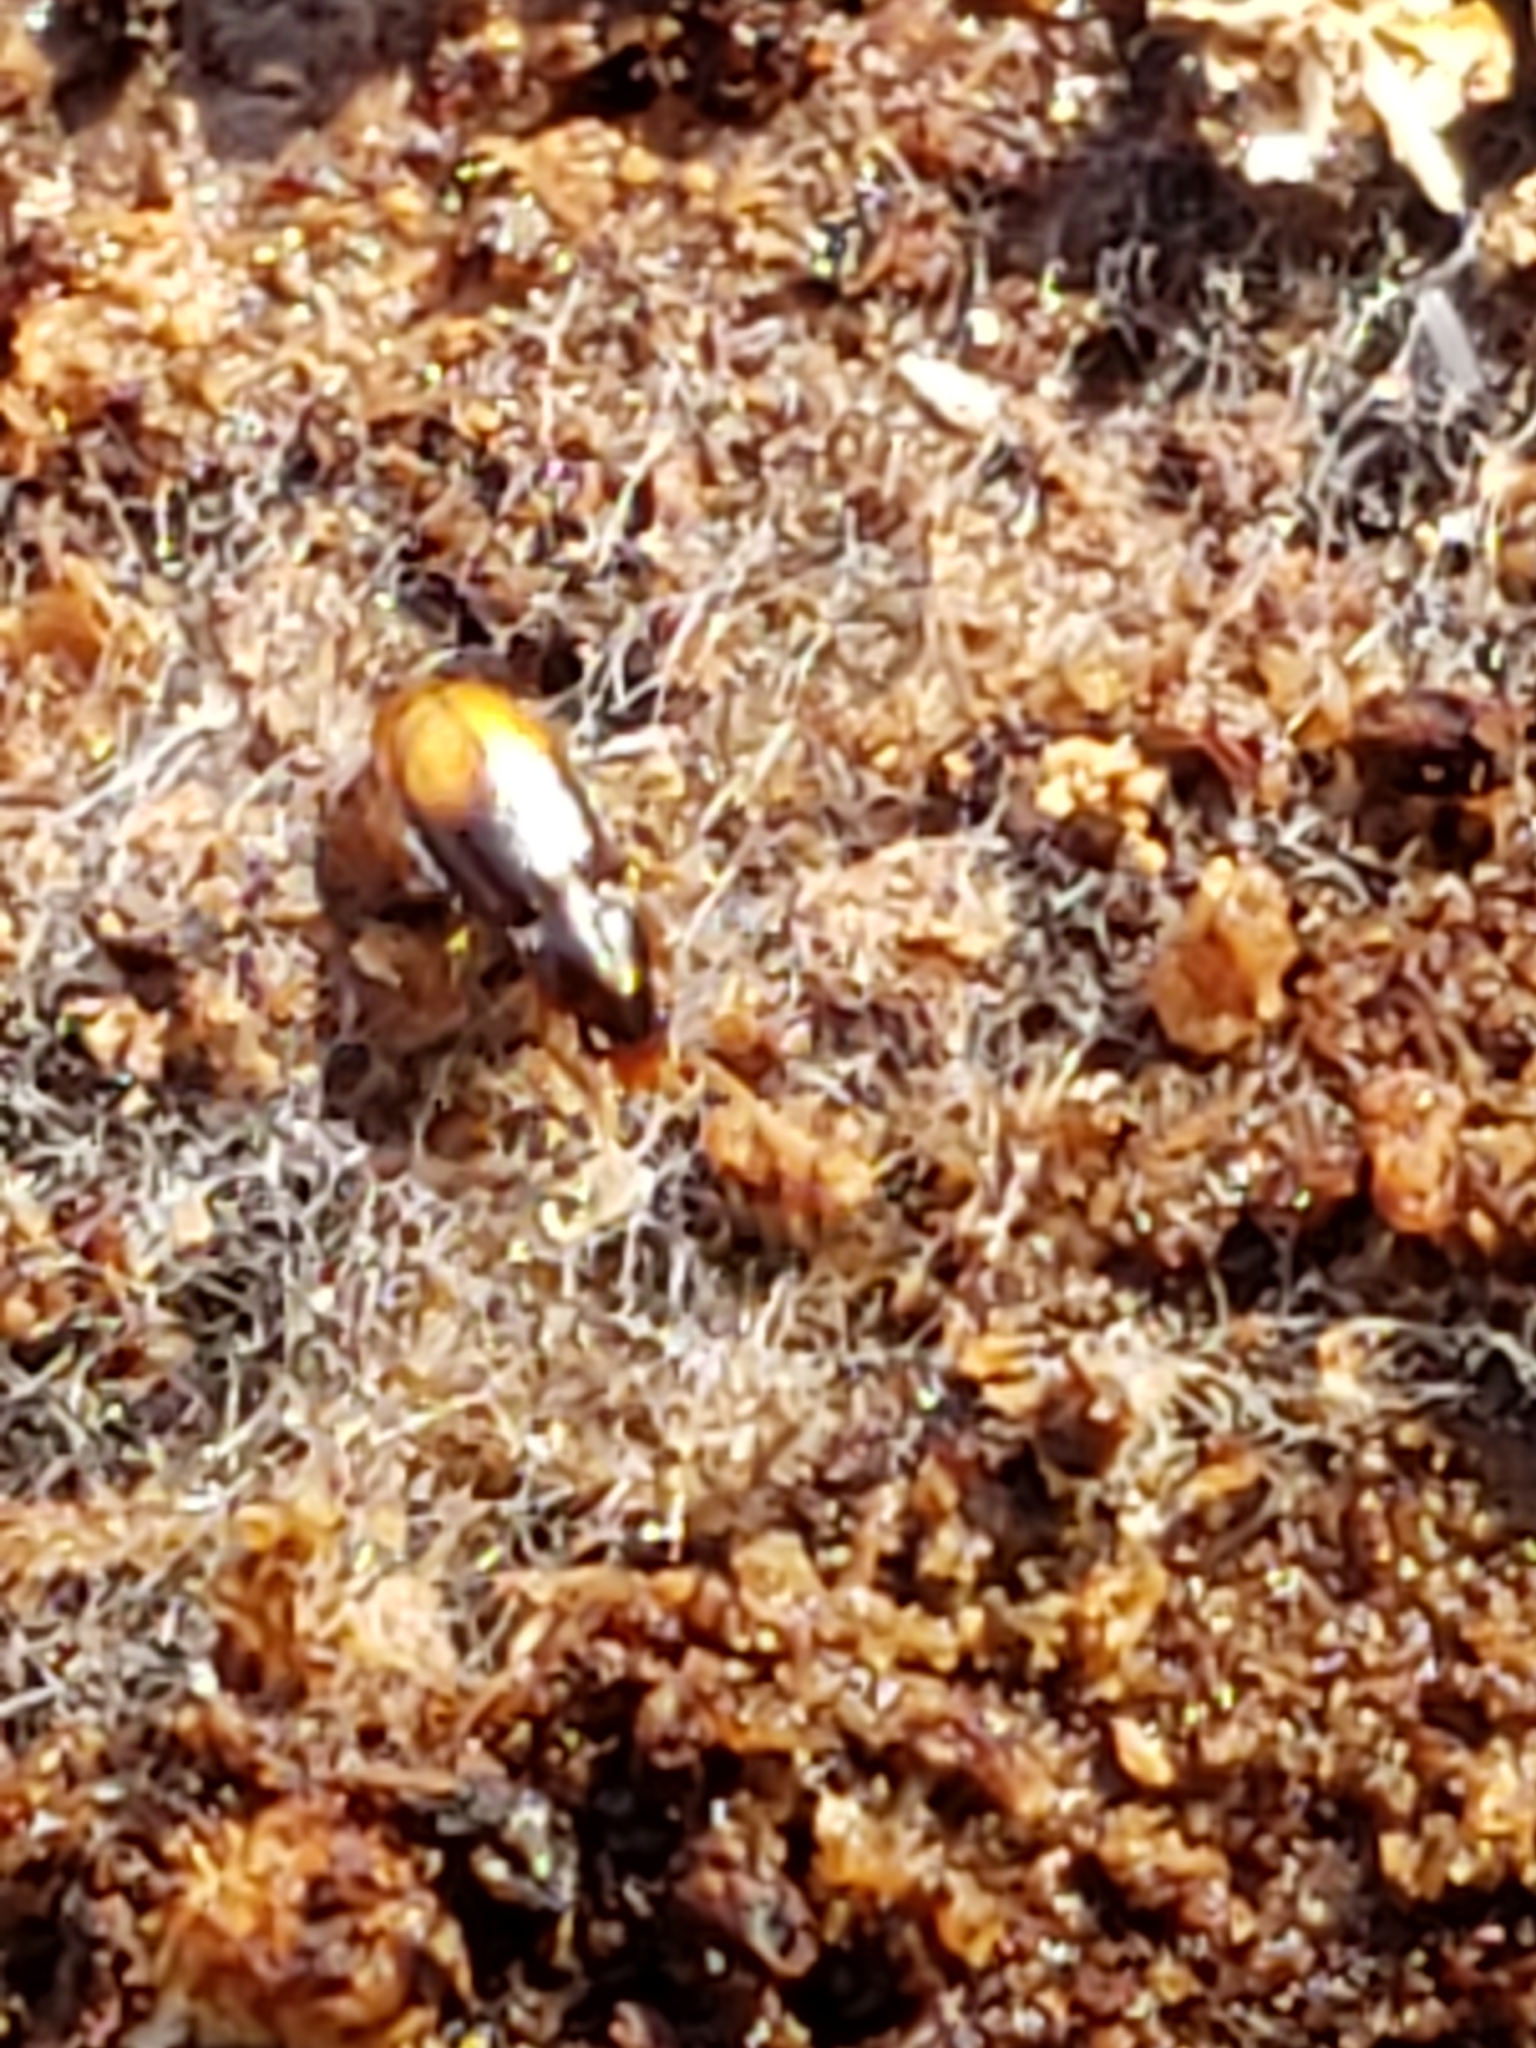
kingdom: Animalia
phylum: Arthropoda
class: Insecta
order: Coleoptera
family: Carabidae
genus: Mioptachys
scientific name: Mioptachys flavicauda
